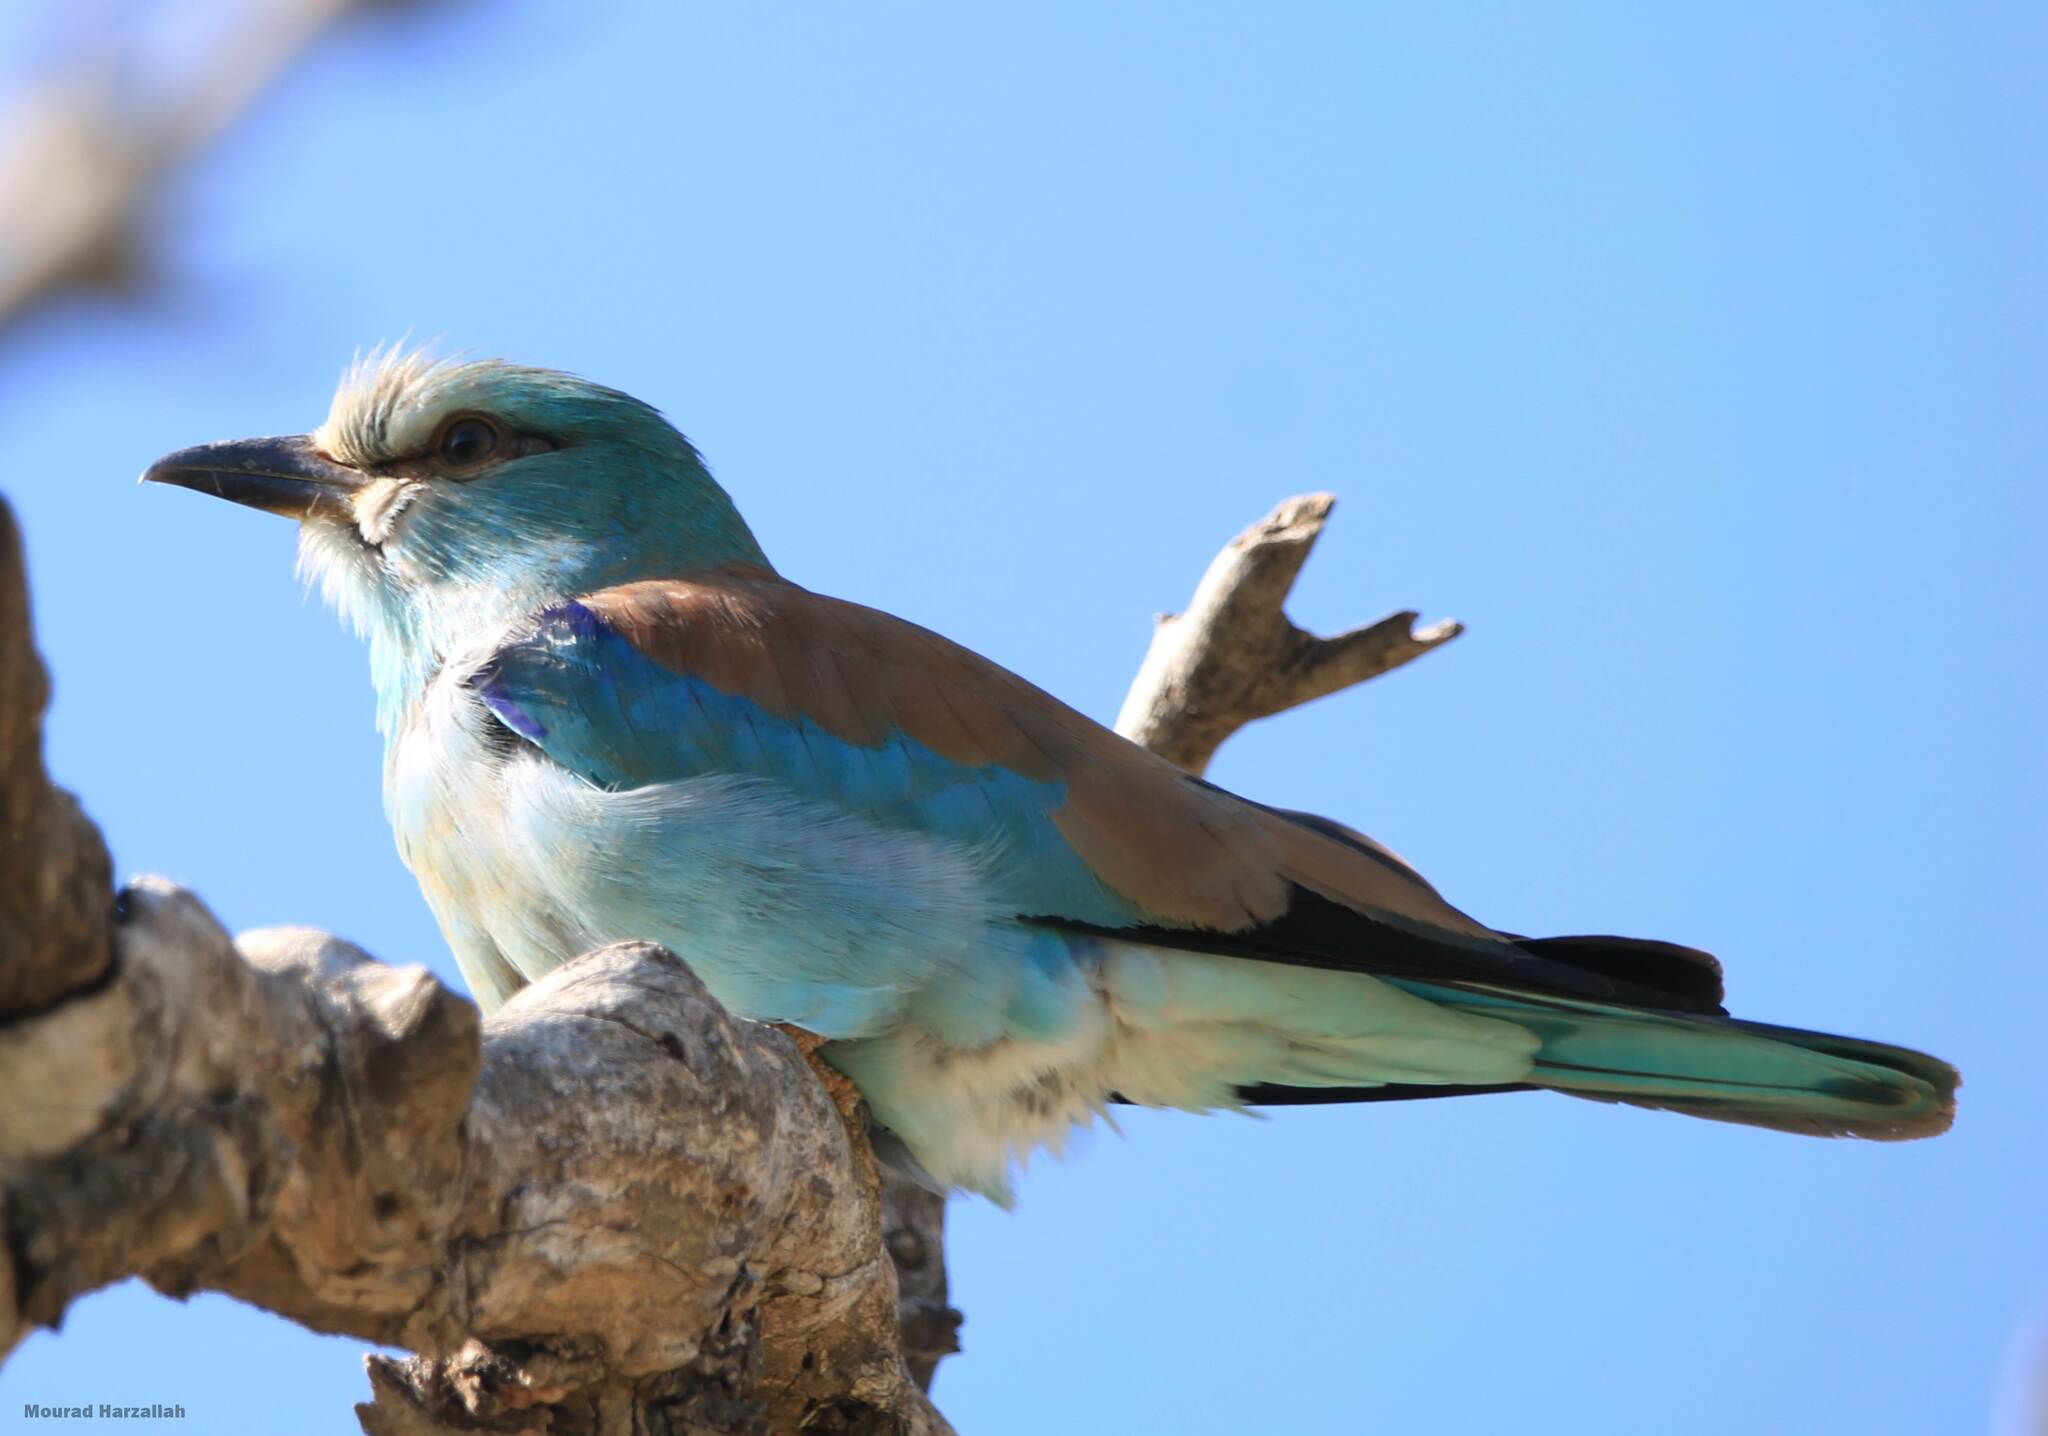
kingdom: Animalia
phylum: Chordata
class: Aves
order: Coraciiformes
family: Coraciidae
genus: Coracias
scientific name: Coracias garrulus
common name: European roller
